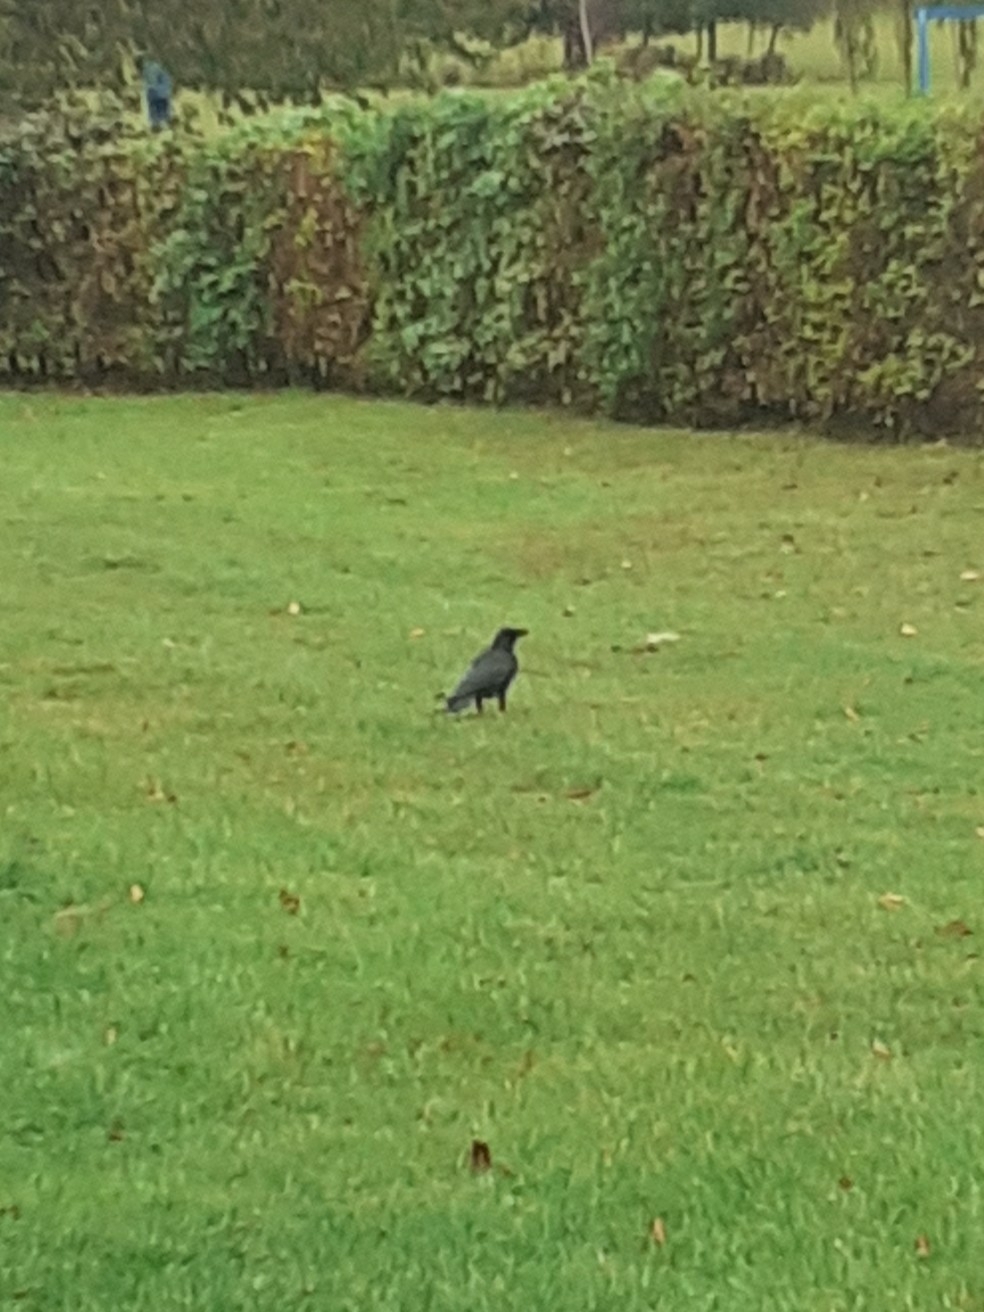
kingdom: Animalia
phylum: Chordata
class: Aves
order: Passeriformes
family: Corvidae
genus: Corvus
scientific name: Corvus corone
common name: Carrion crow
